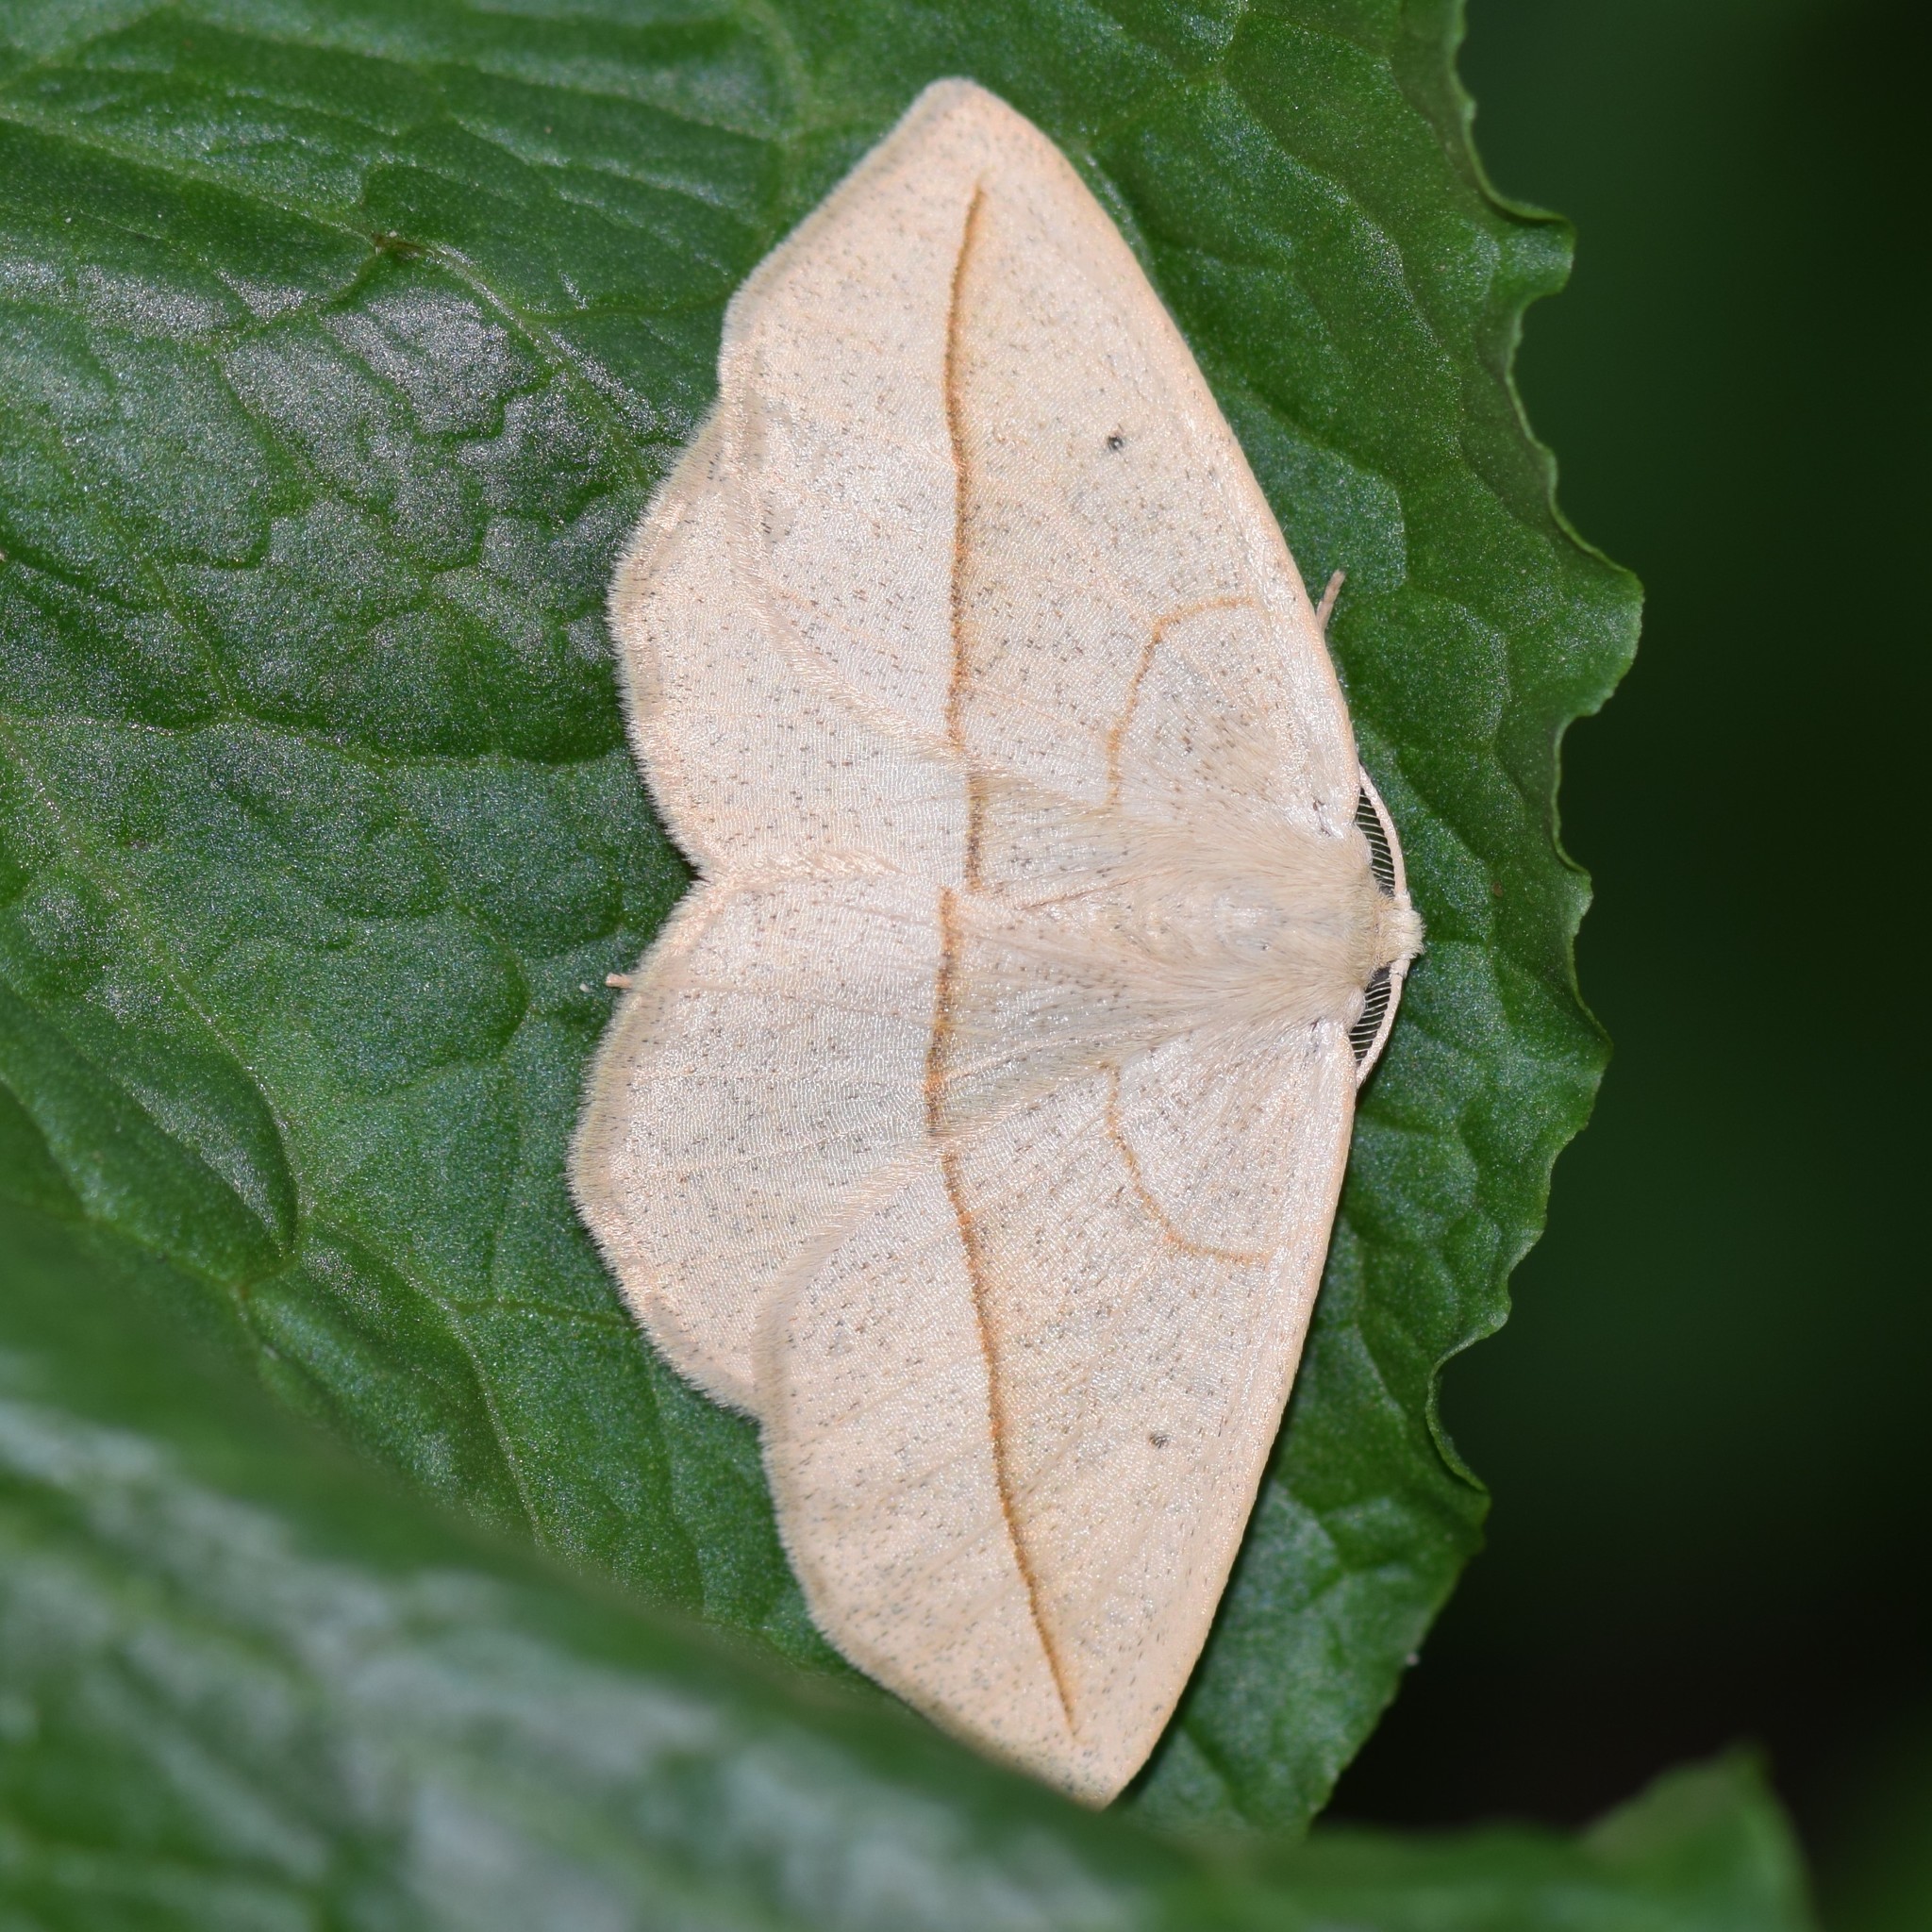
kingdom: Animalia
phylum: Arthropoda
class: Insecta
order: Lepidoptera
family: Geometridae
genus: Eusarca
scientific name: Eusarca confusaria
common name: Confused eusarca
